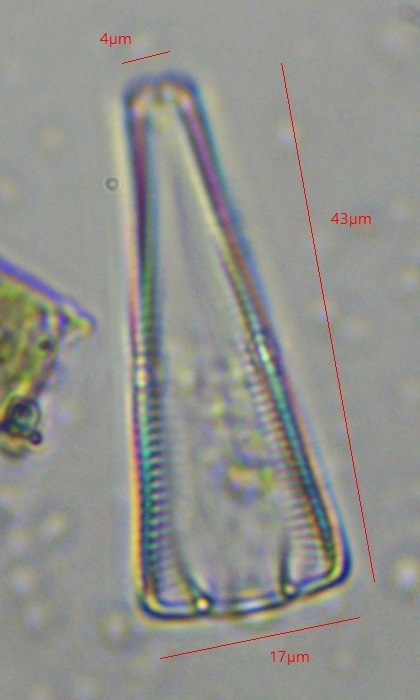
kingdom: Chromista
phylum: Ochrophyta
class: Bacillariophyceae
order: Cymbellales
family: Gomphonemataceae
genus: Gomphonema
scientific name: Gomphonema truncatum
